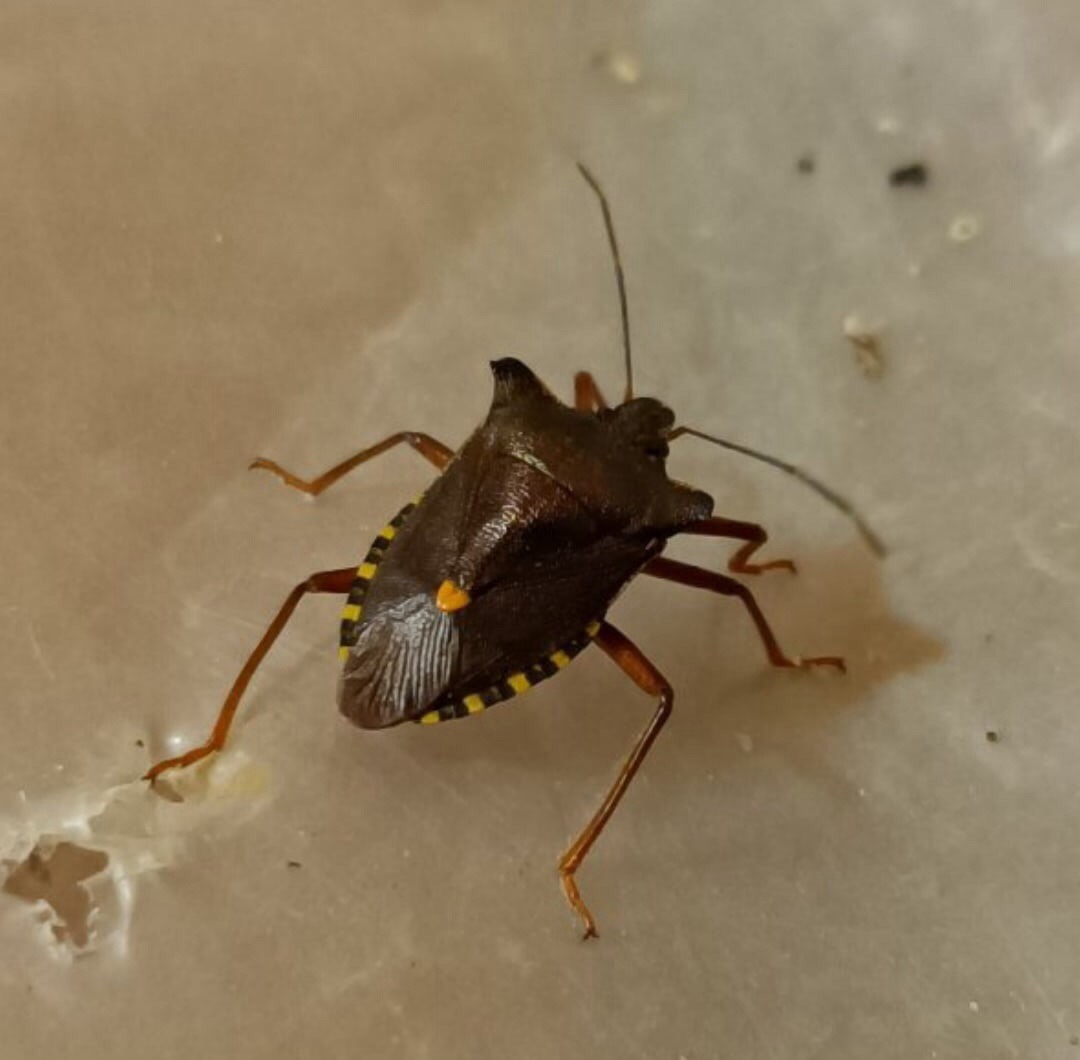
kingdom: Animalia
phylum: Arthropoda
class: Insecta
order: Hemiptera
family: Pentatomidae
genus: Pentatoma
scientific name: Pentatoma rufipes
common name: Forest bug
